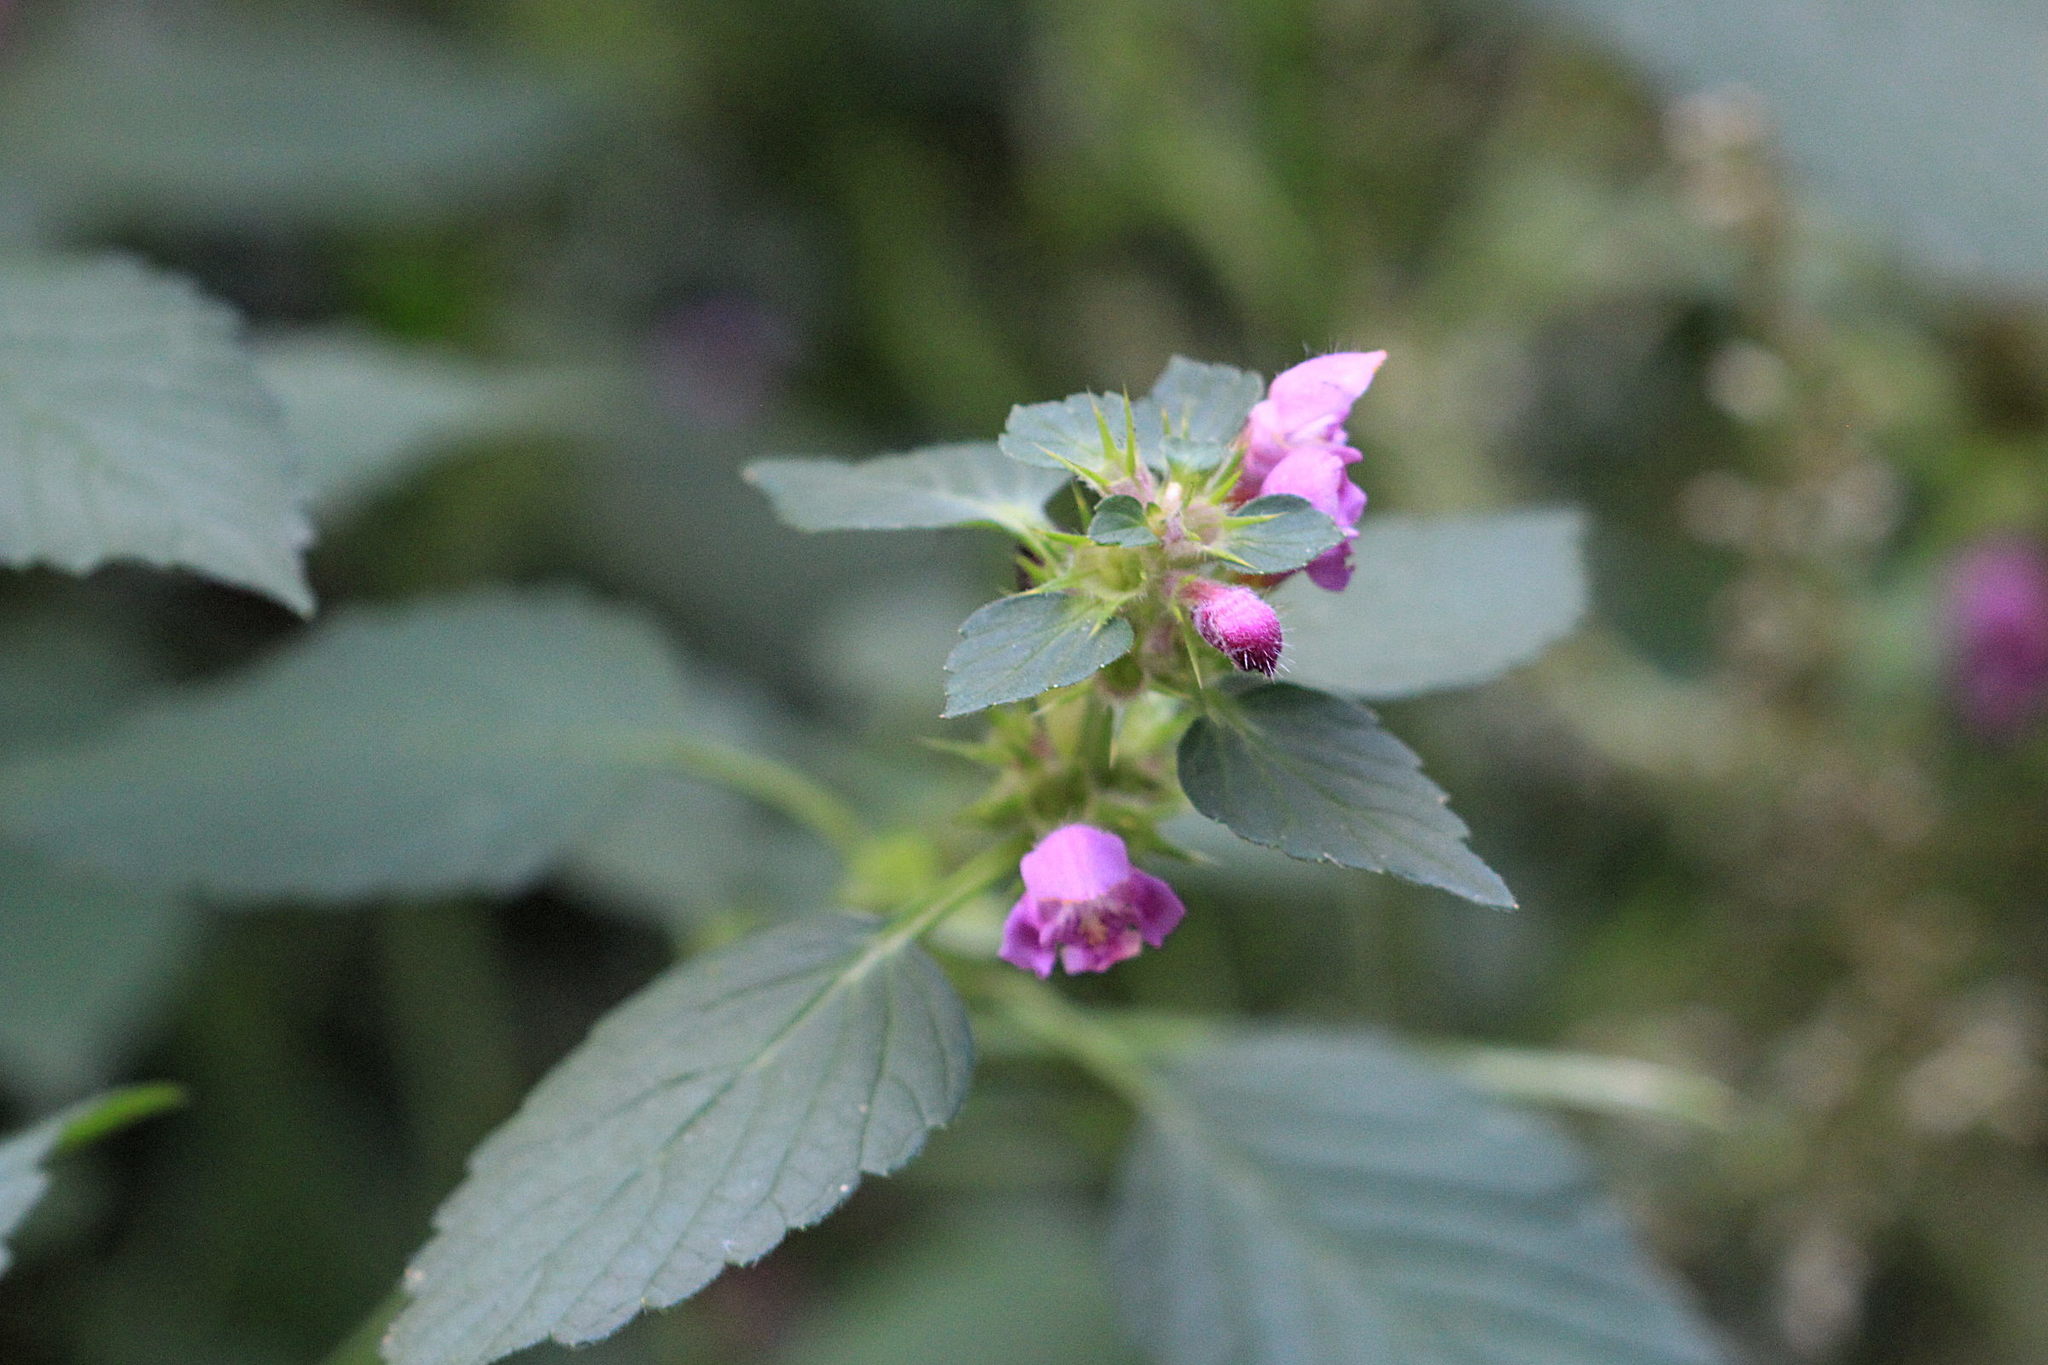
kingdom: Plantae
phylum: Tracheophyta
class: Magnoliopsida
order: Lamiales
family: Lamiaceae
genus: Galeopsis
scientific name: Galeopsis pubescens
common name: Downy hemp-nettle
